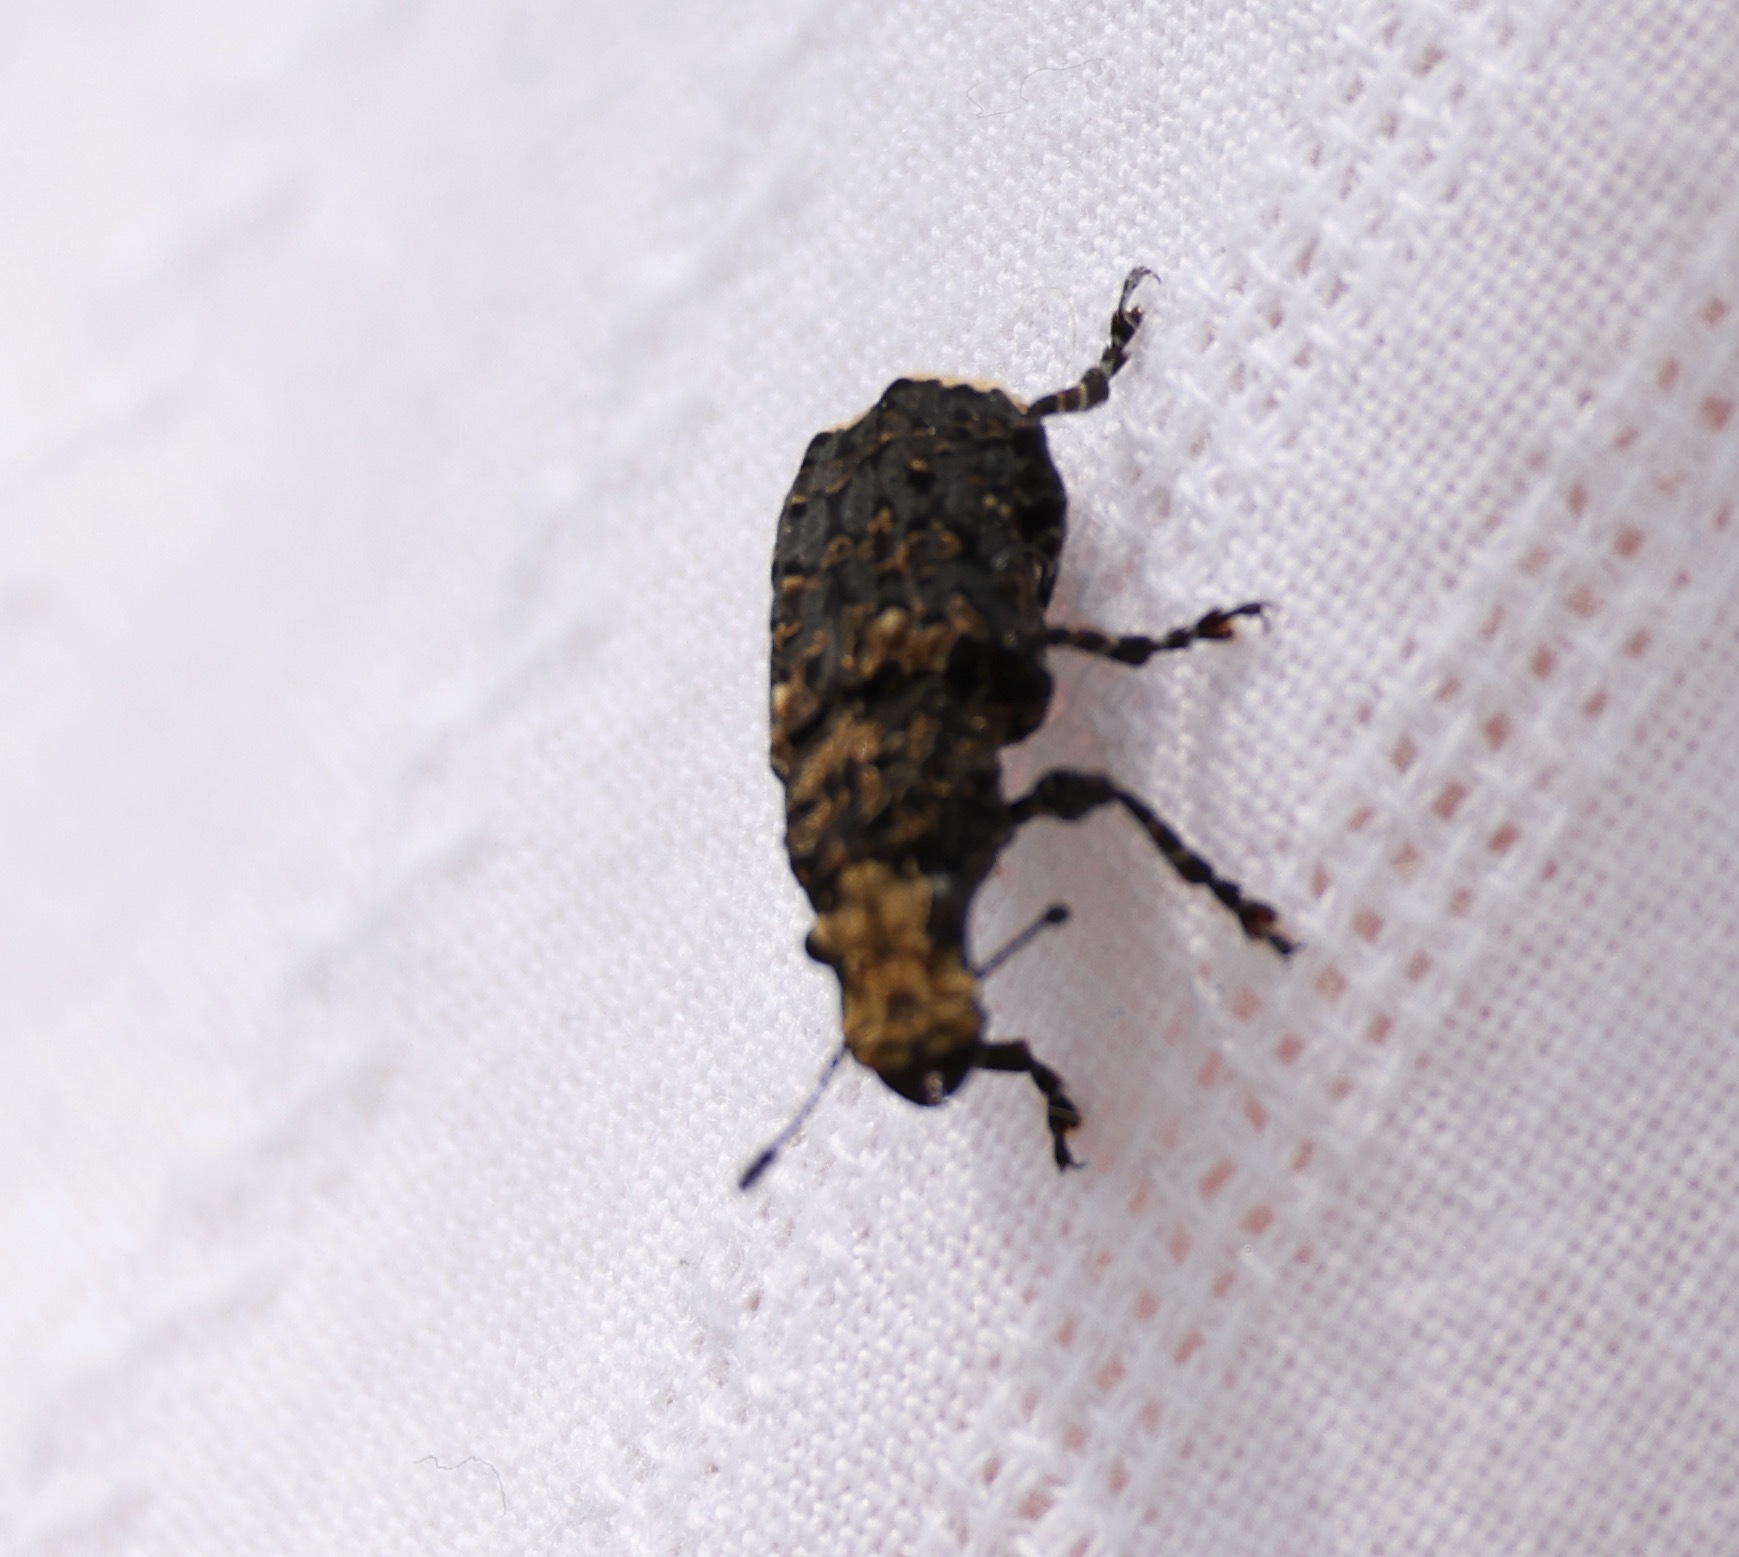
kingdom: Animalia
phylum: Arthropoda
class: Insecta
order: Coleoptera
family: Anthribidae
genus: Platyrhinus
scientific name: Platyrhinus resinosus
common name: Cramp-ball fungus weevil
